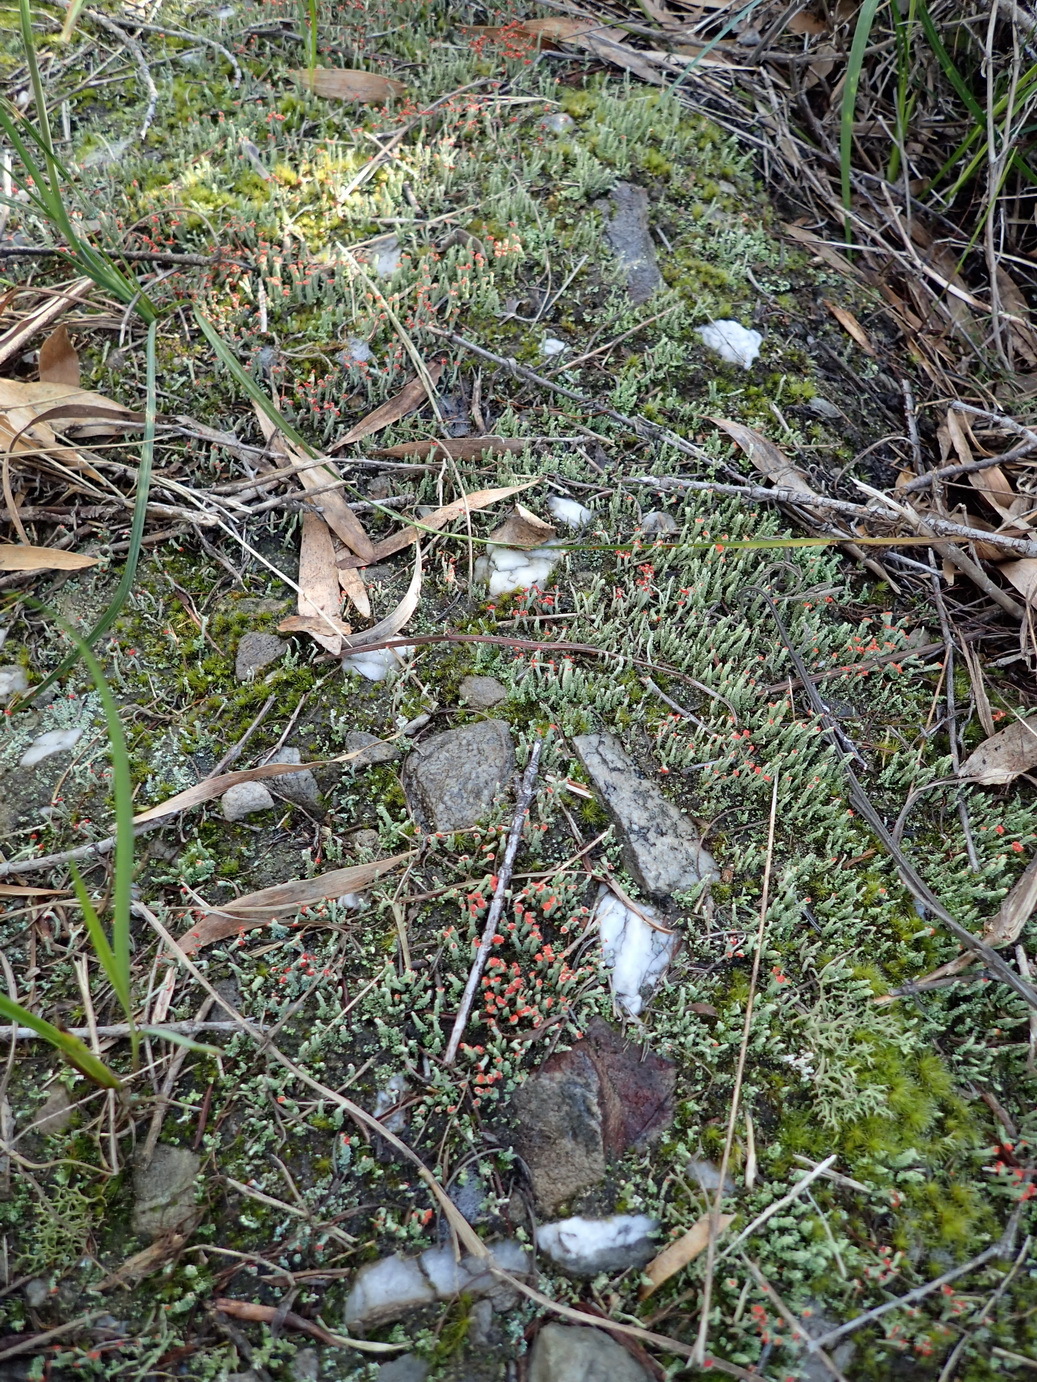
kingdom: Fungi
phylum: Ascomycota
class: Lecanoromycetes
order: Lecanorales
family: Cladoniaceae
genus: Cladonia
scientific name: Cladonia floerkeana
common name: Gritty british soldiers lichen
